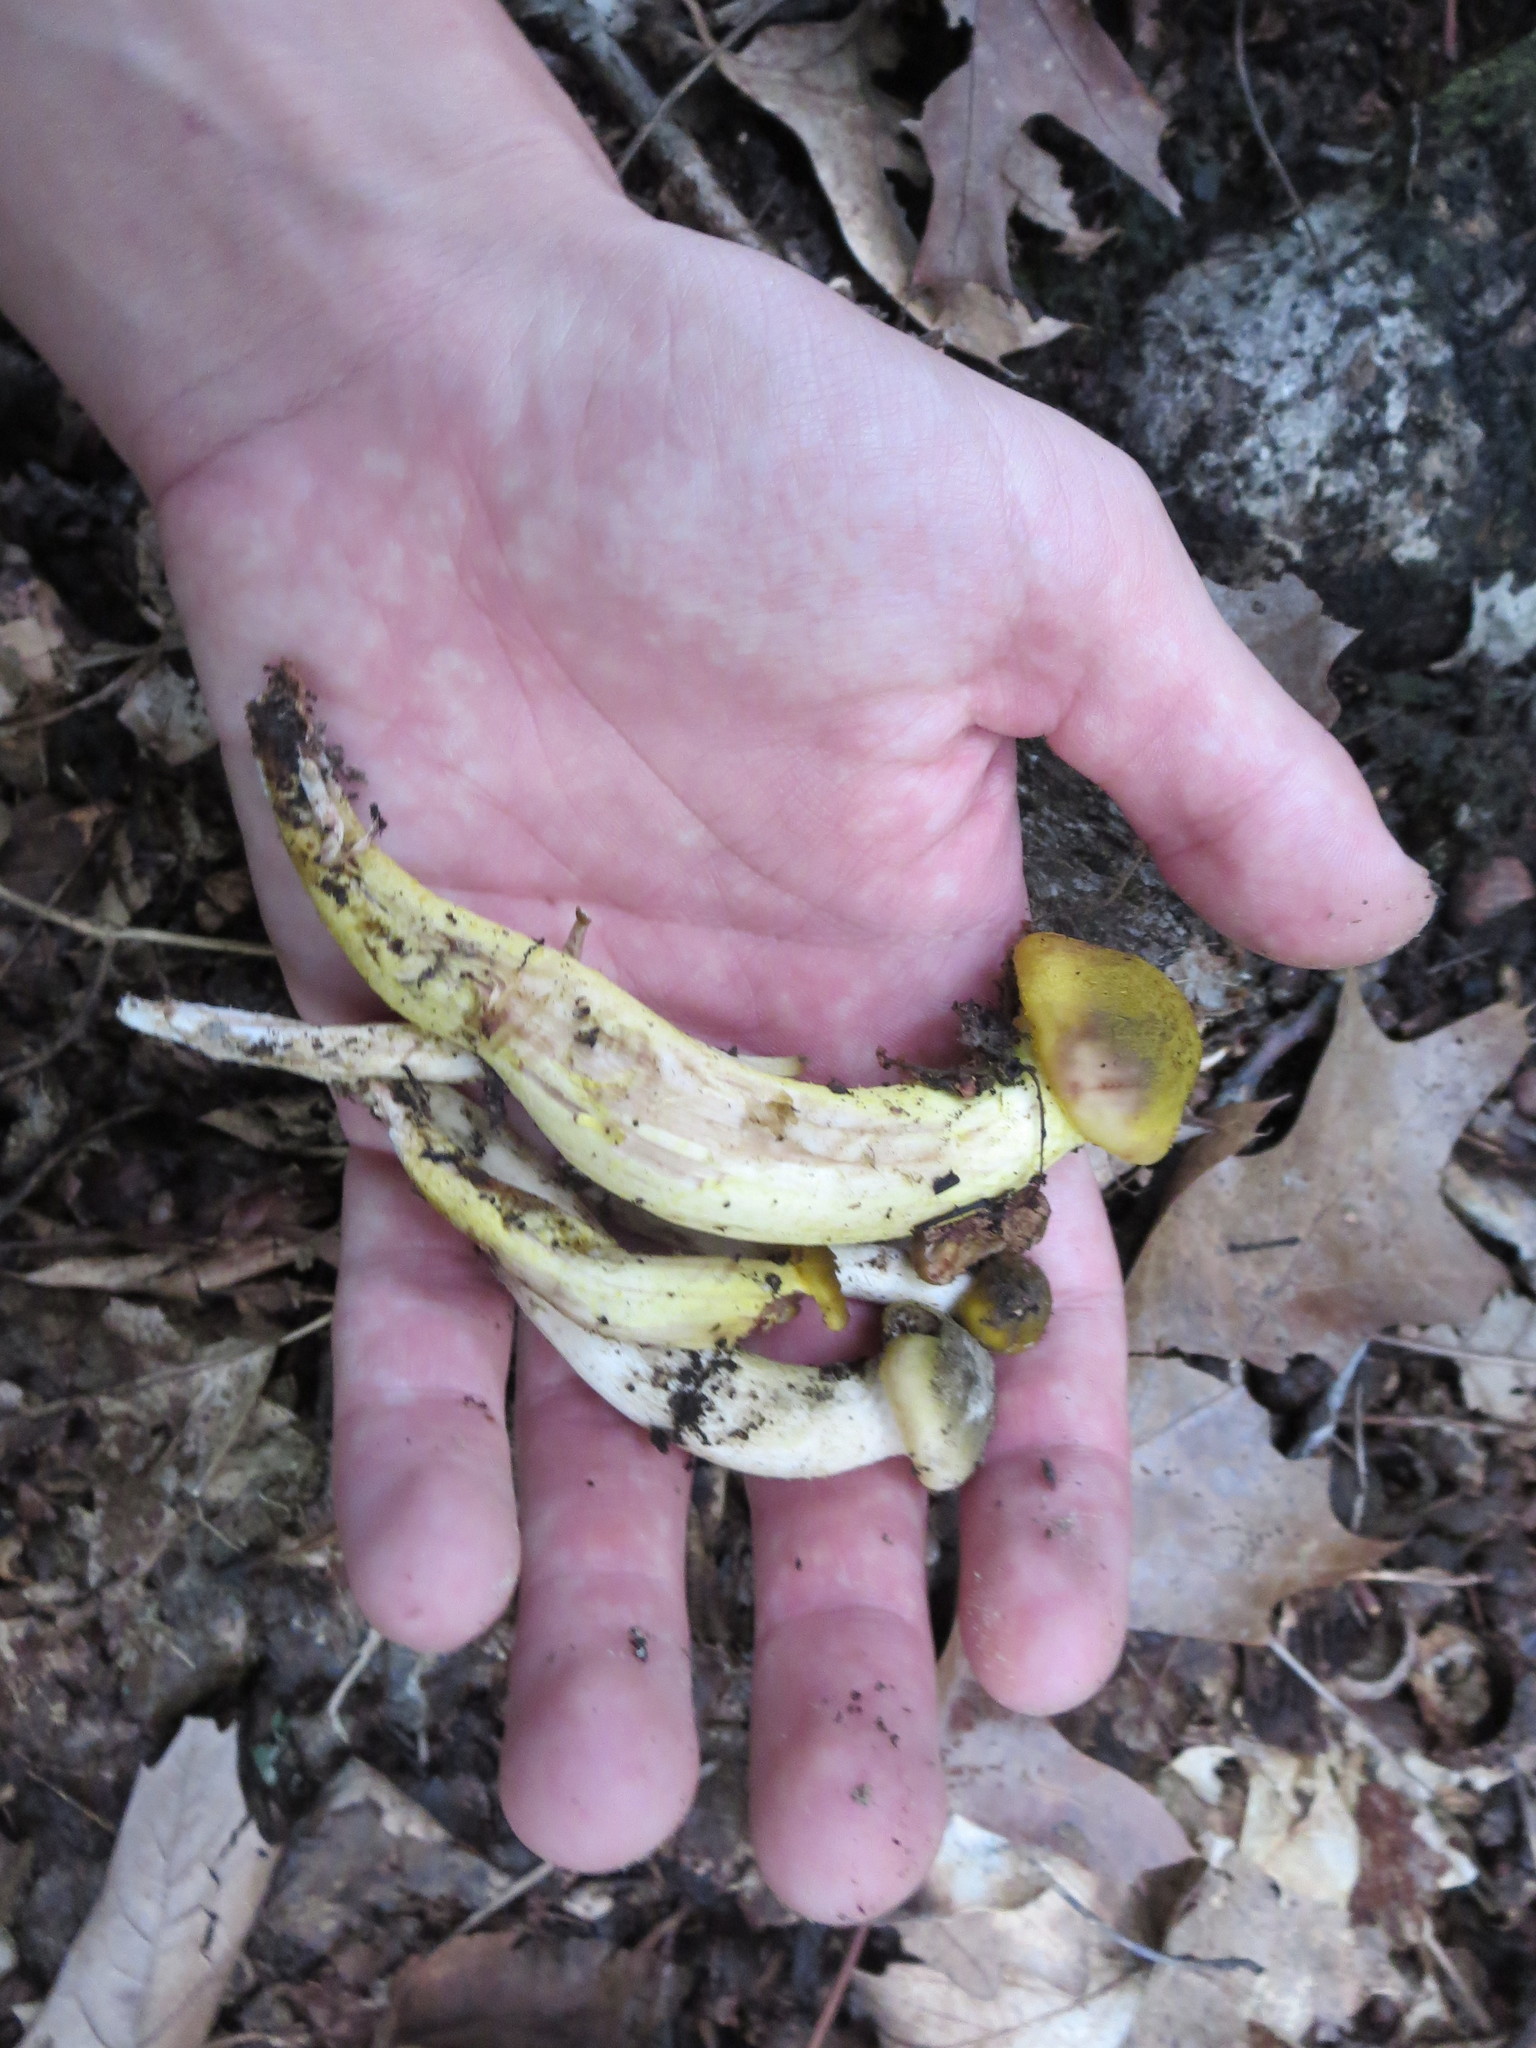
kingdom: Fungi
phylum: Basidiomycota
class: Agaricomycetes
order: Agaricales
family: Physalacriaceae
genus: Armillaria
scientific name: Armillaria mellea
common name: Honey fungus
